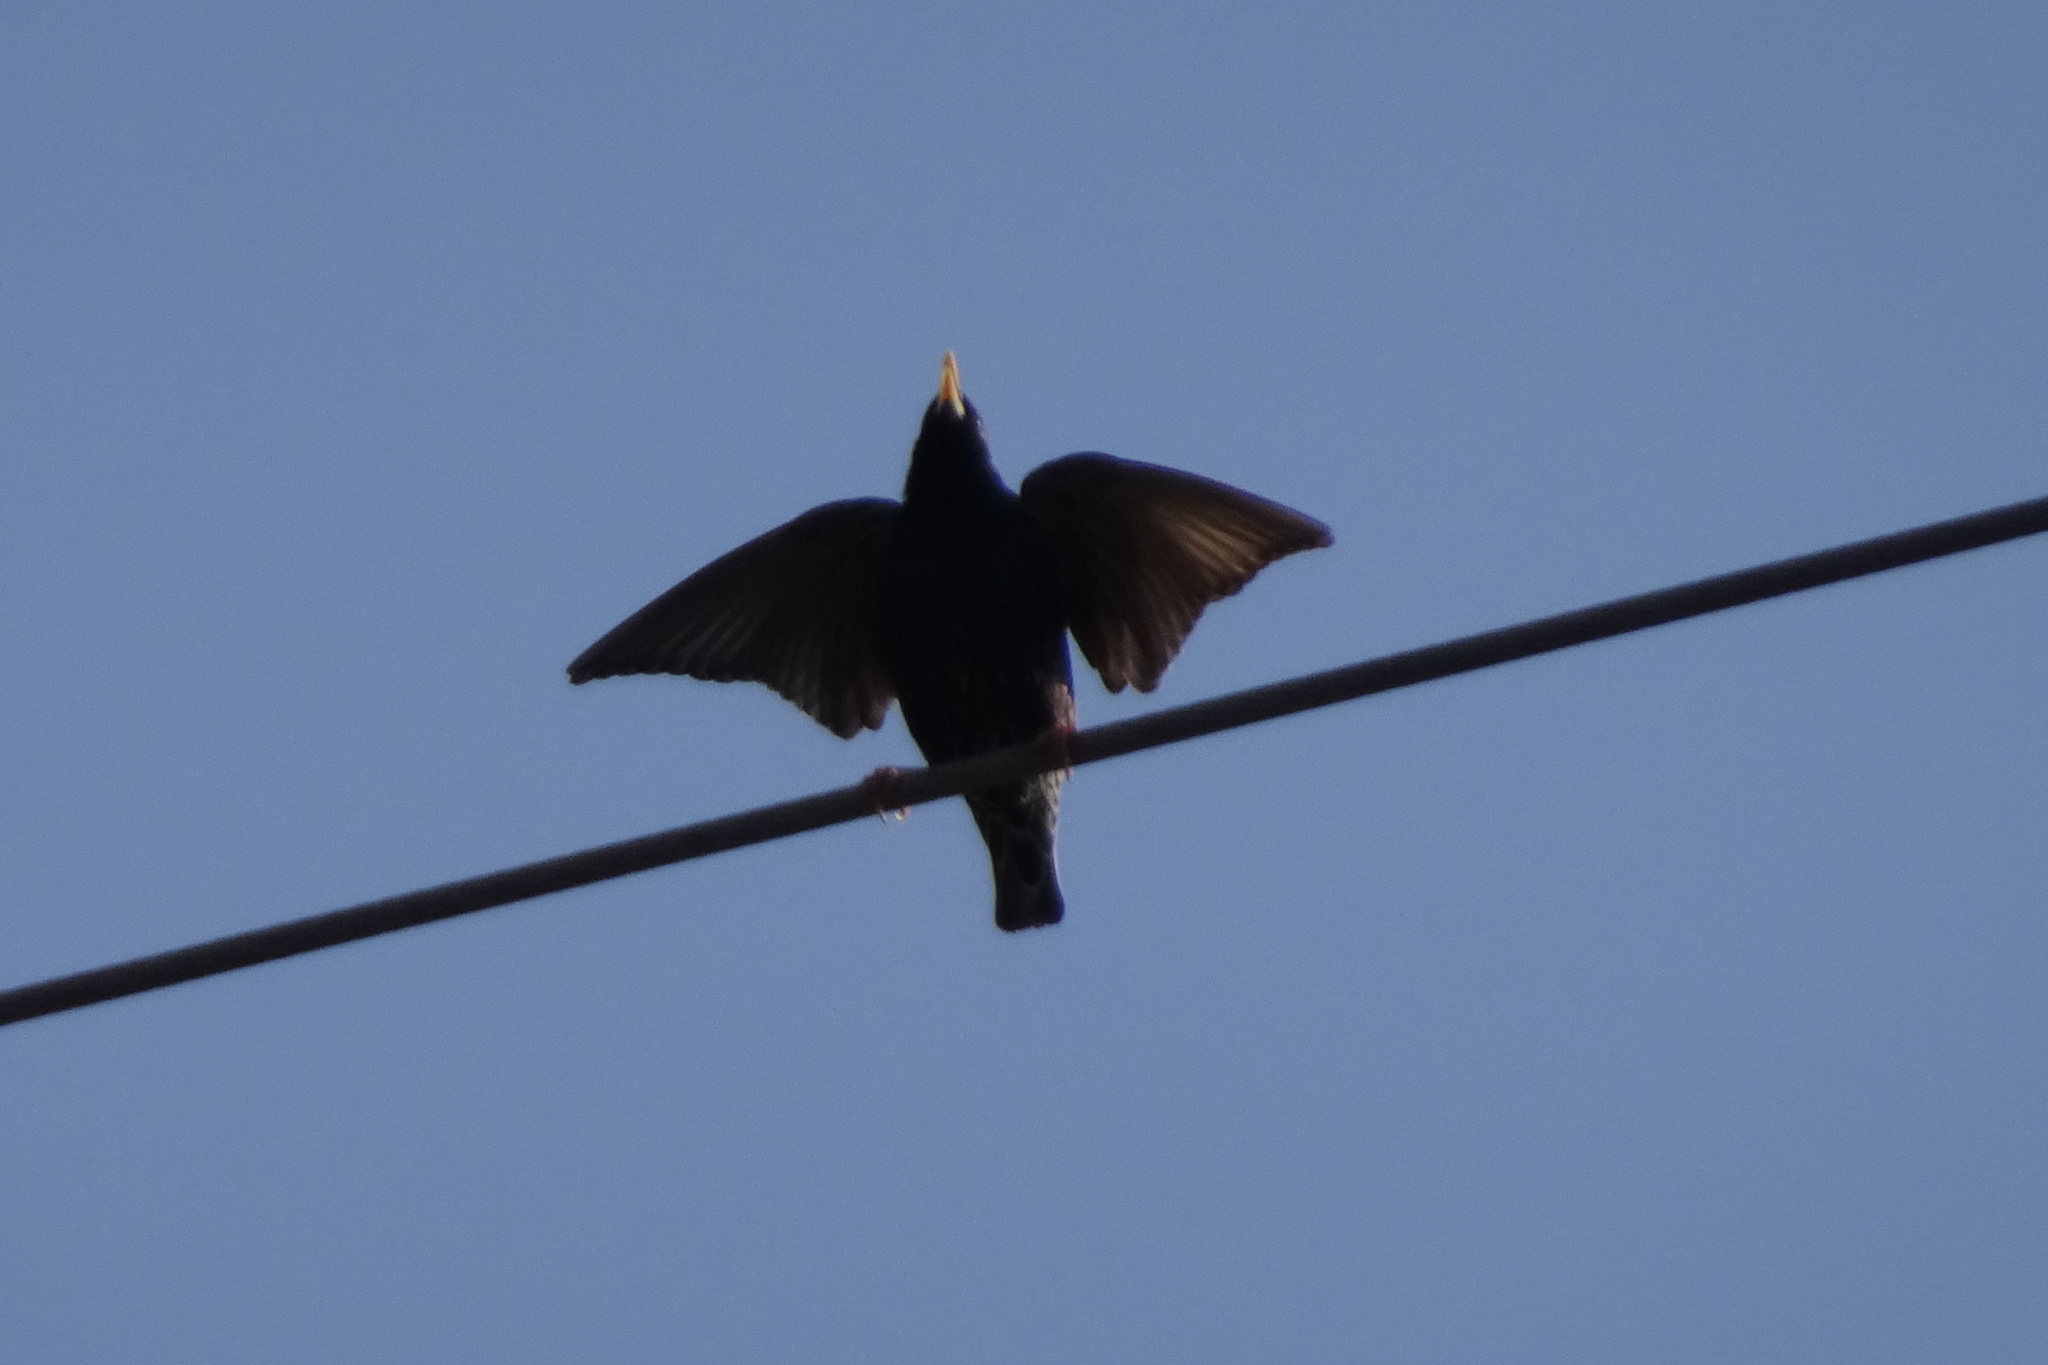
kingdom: Animalia
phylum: Chordata
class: Aves
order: Passeriformes
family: Sturnidae
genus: Sturnus
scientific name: Sturnus vulgaris
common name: Common starling
